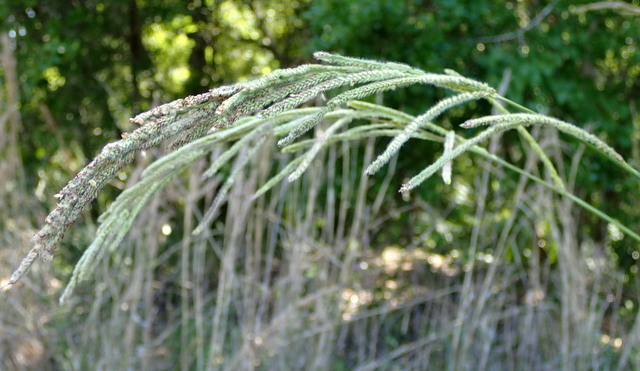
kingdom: Plantae
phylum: Tracheophyta
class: Liliopsida
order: Poales
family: Poaceae
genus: Paspalum
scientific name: Paspalum urvillei
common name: Vasey's grass
